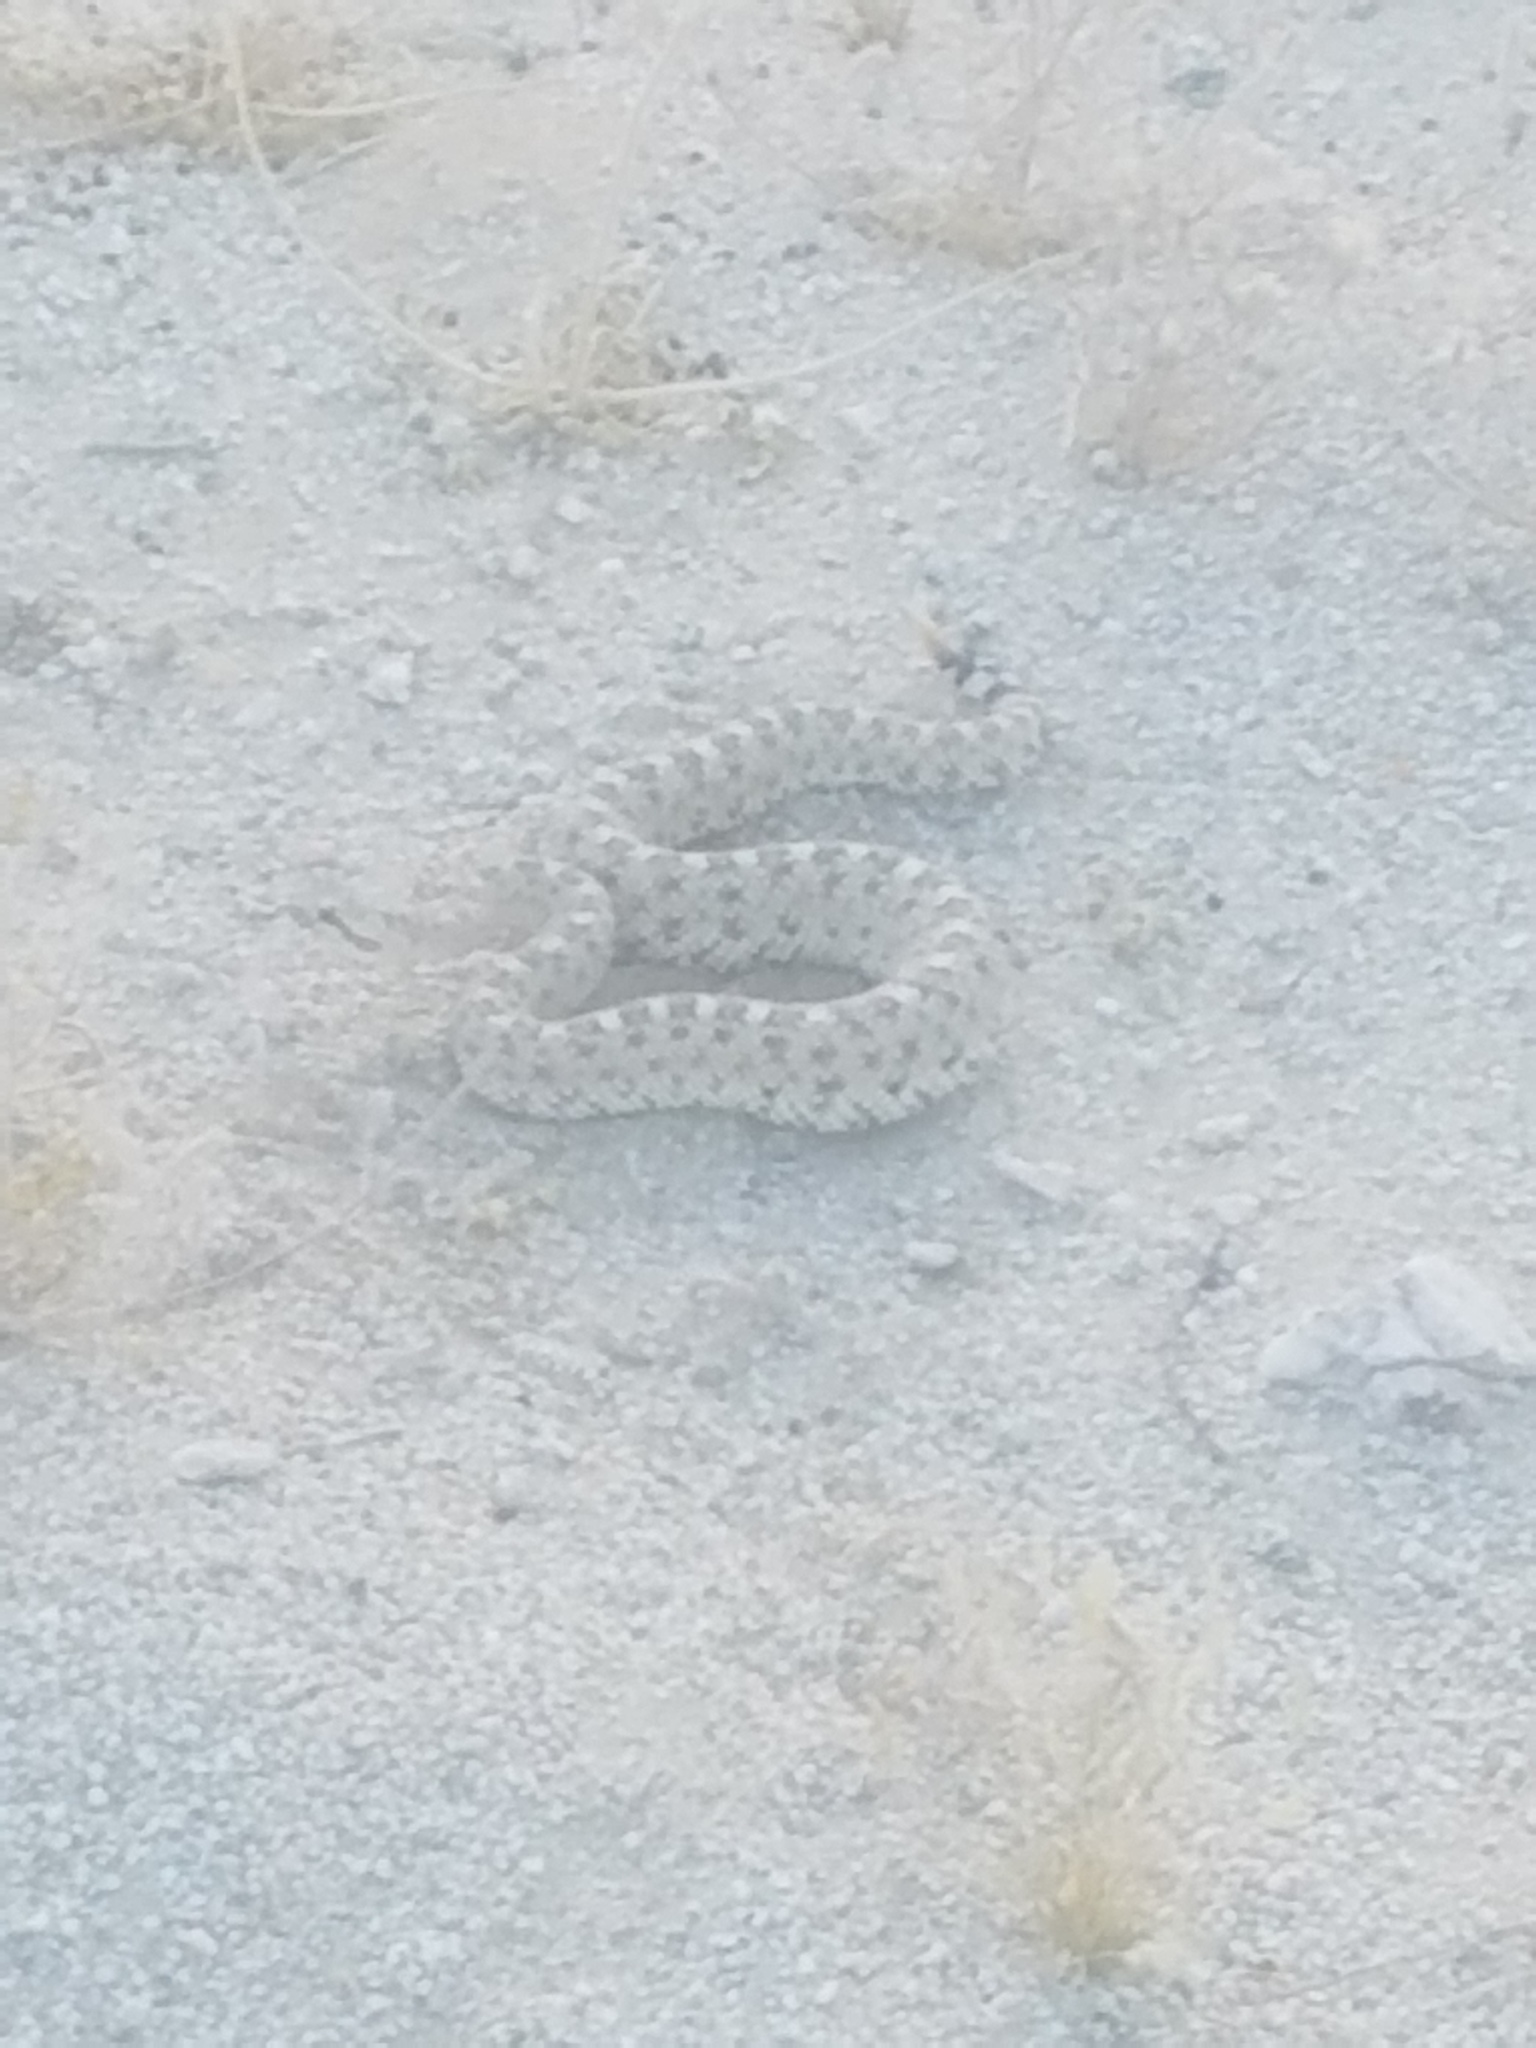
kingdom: Animalia
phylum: Chordata
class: Squamata
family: Viperidae
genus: Crotalus
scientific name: Crotalus cerastes
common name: Sidewinder
